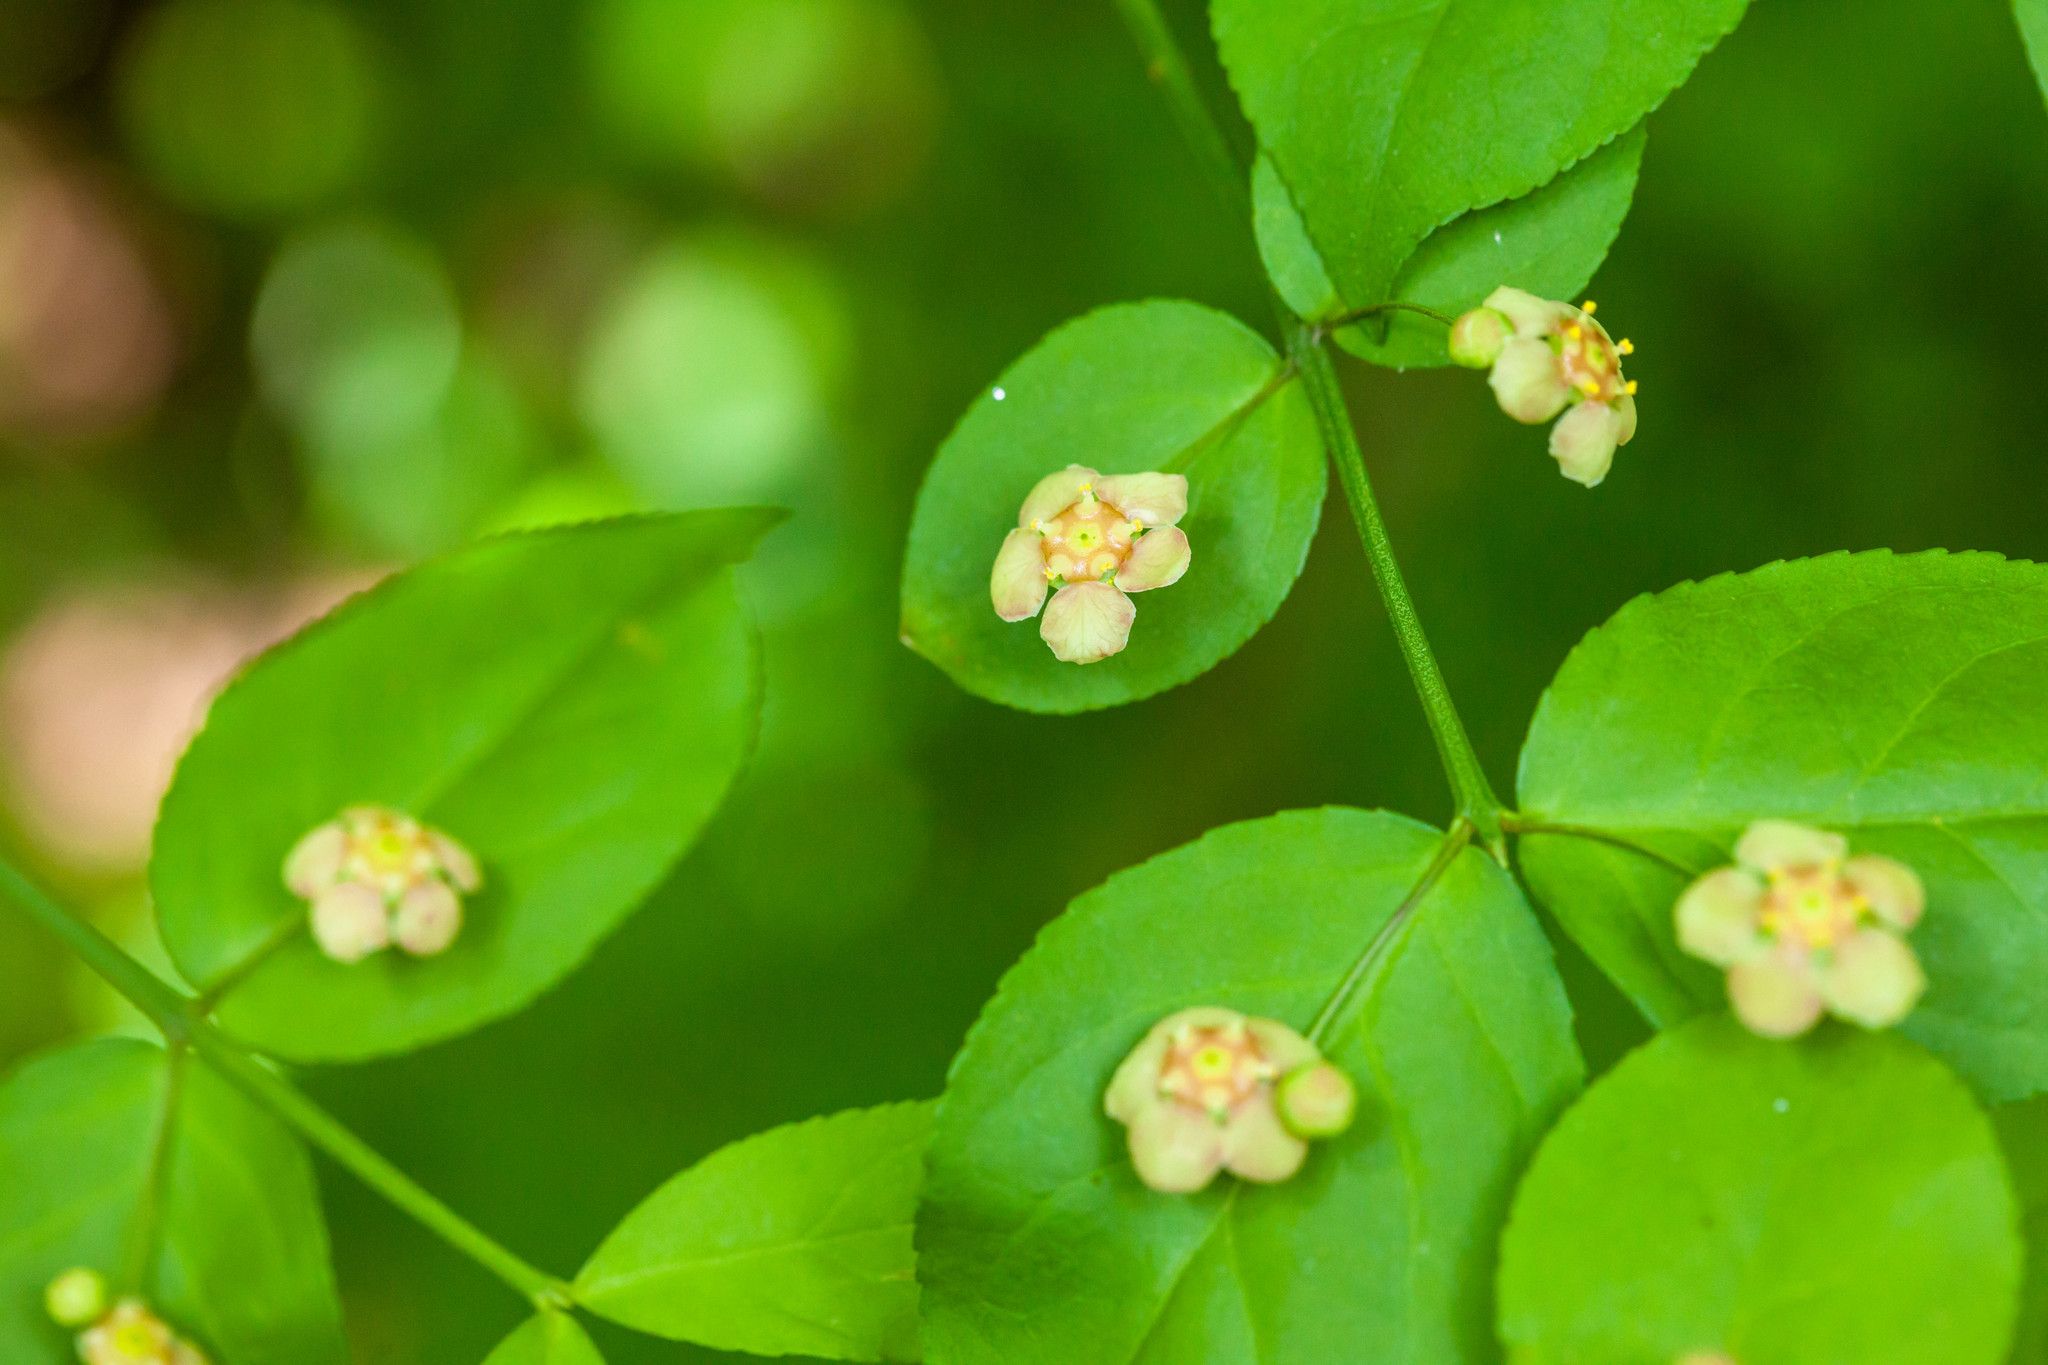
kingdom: Plantae
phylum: Tracheophyta
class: Magnoliopsida
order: Celastrales
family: Celastraceae
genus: Euonymus
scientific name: Euonymus americanus
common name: Bursting-heart
